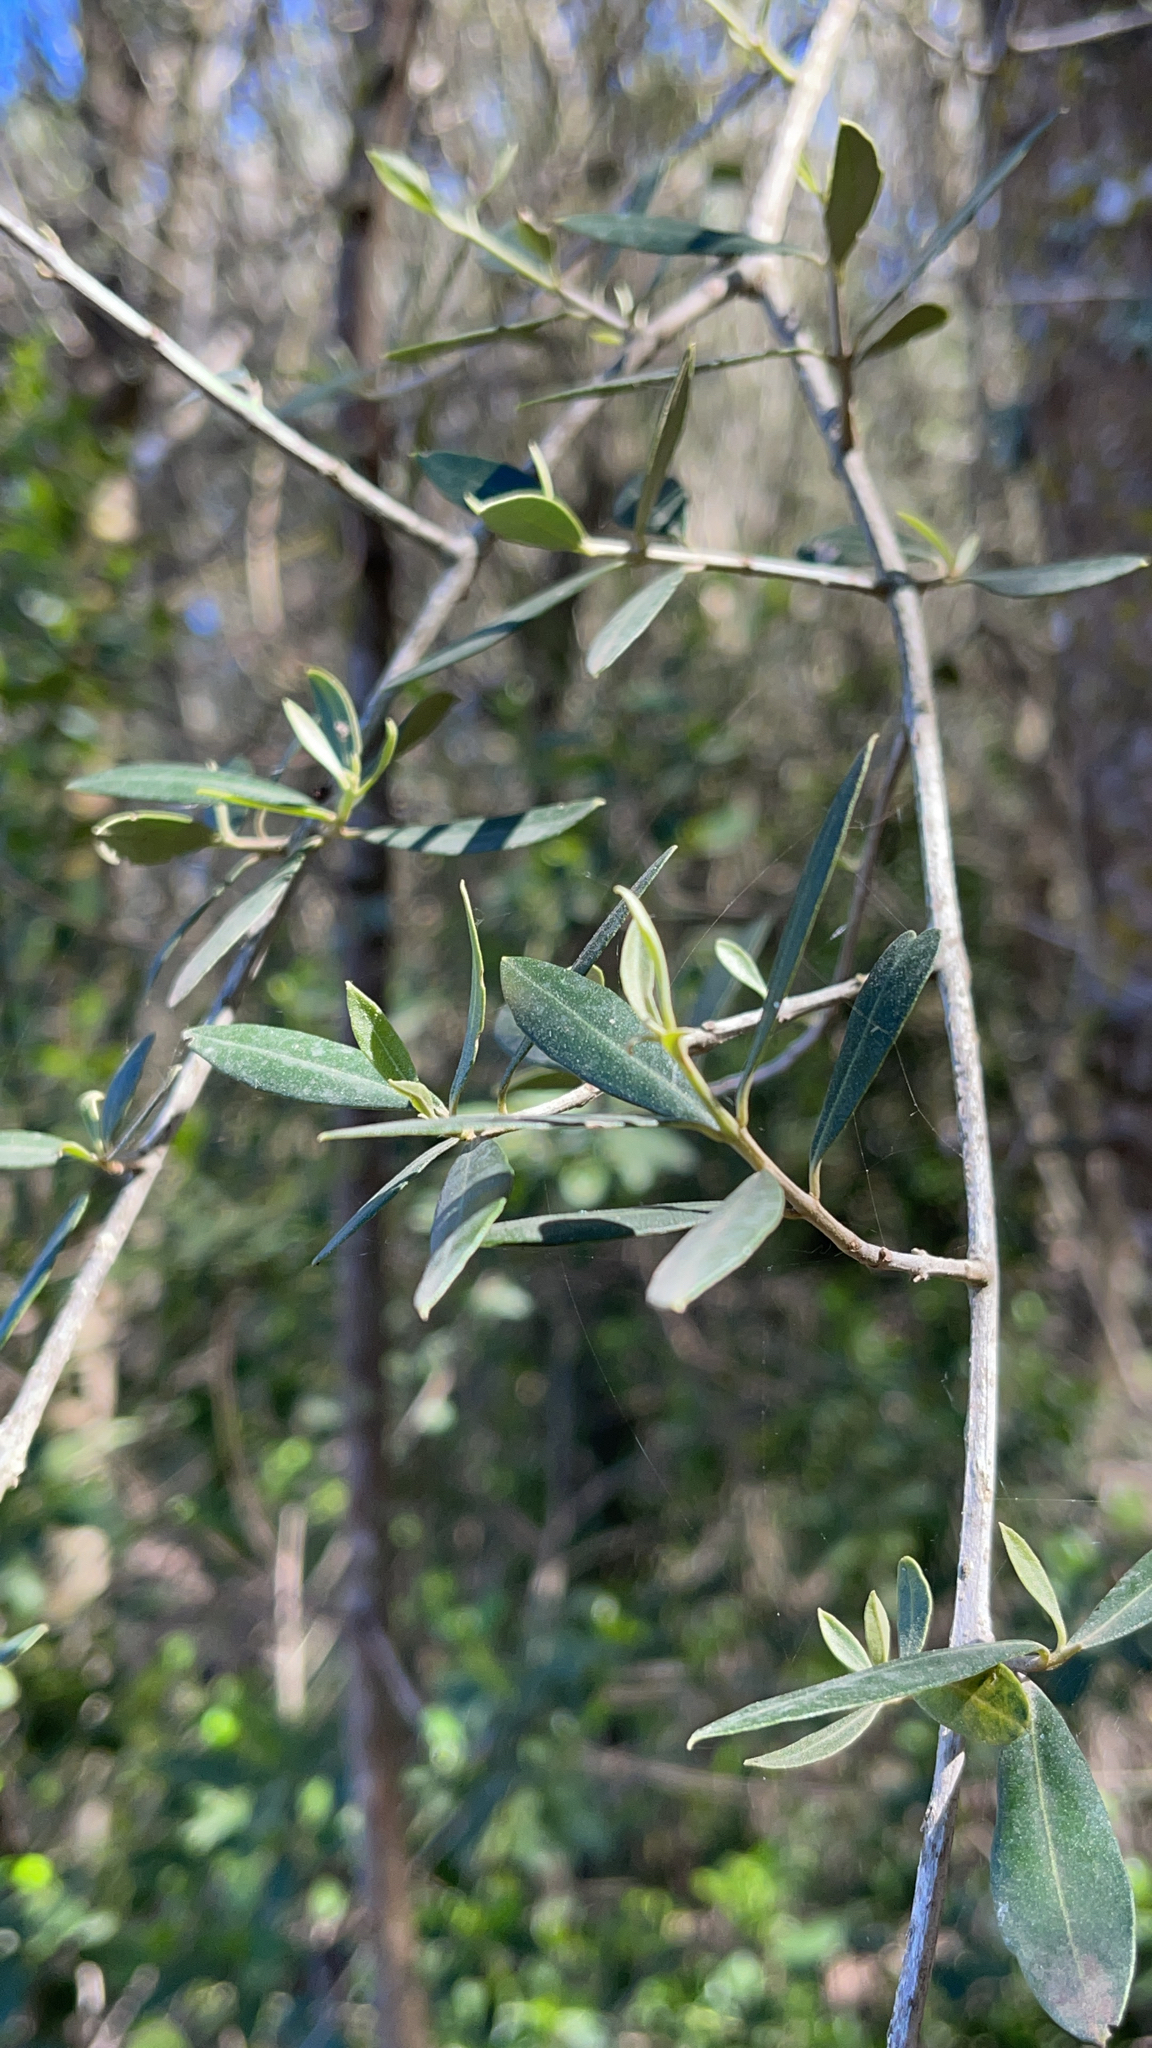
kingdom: Plantae
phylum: Tracheophyta
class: Magnoliopsida
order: Lamiales
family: Verbenaceae
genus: Aloysia
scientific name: Aloysia gratissima
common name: Common bee-brush
